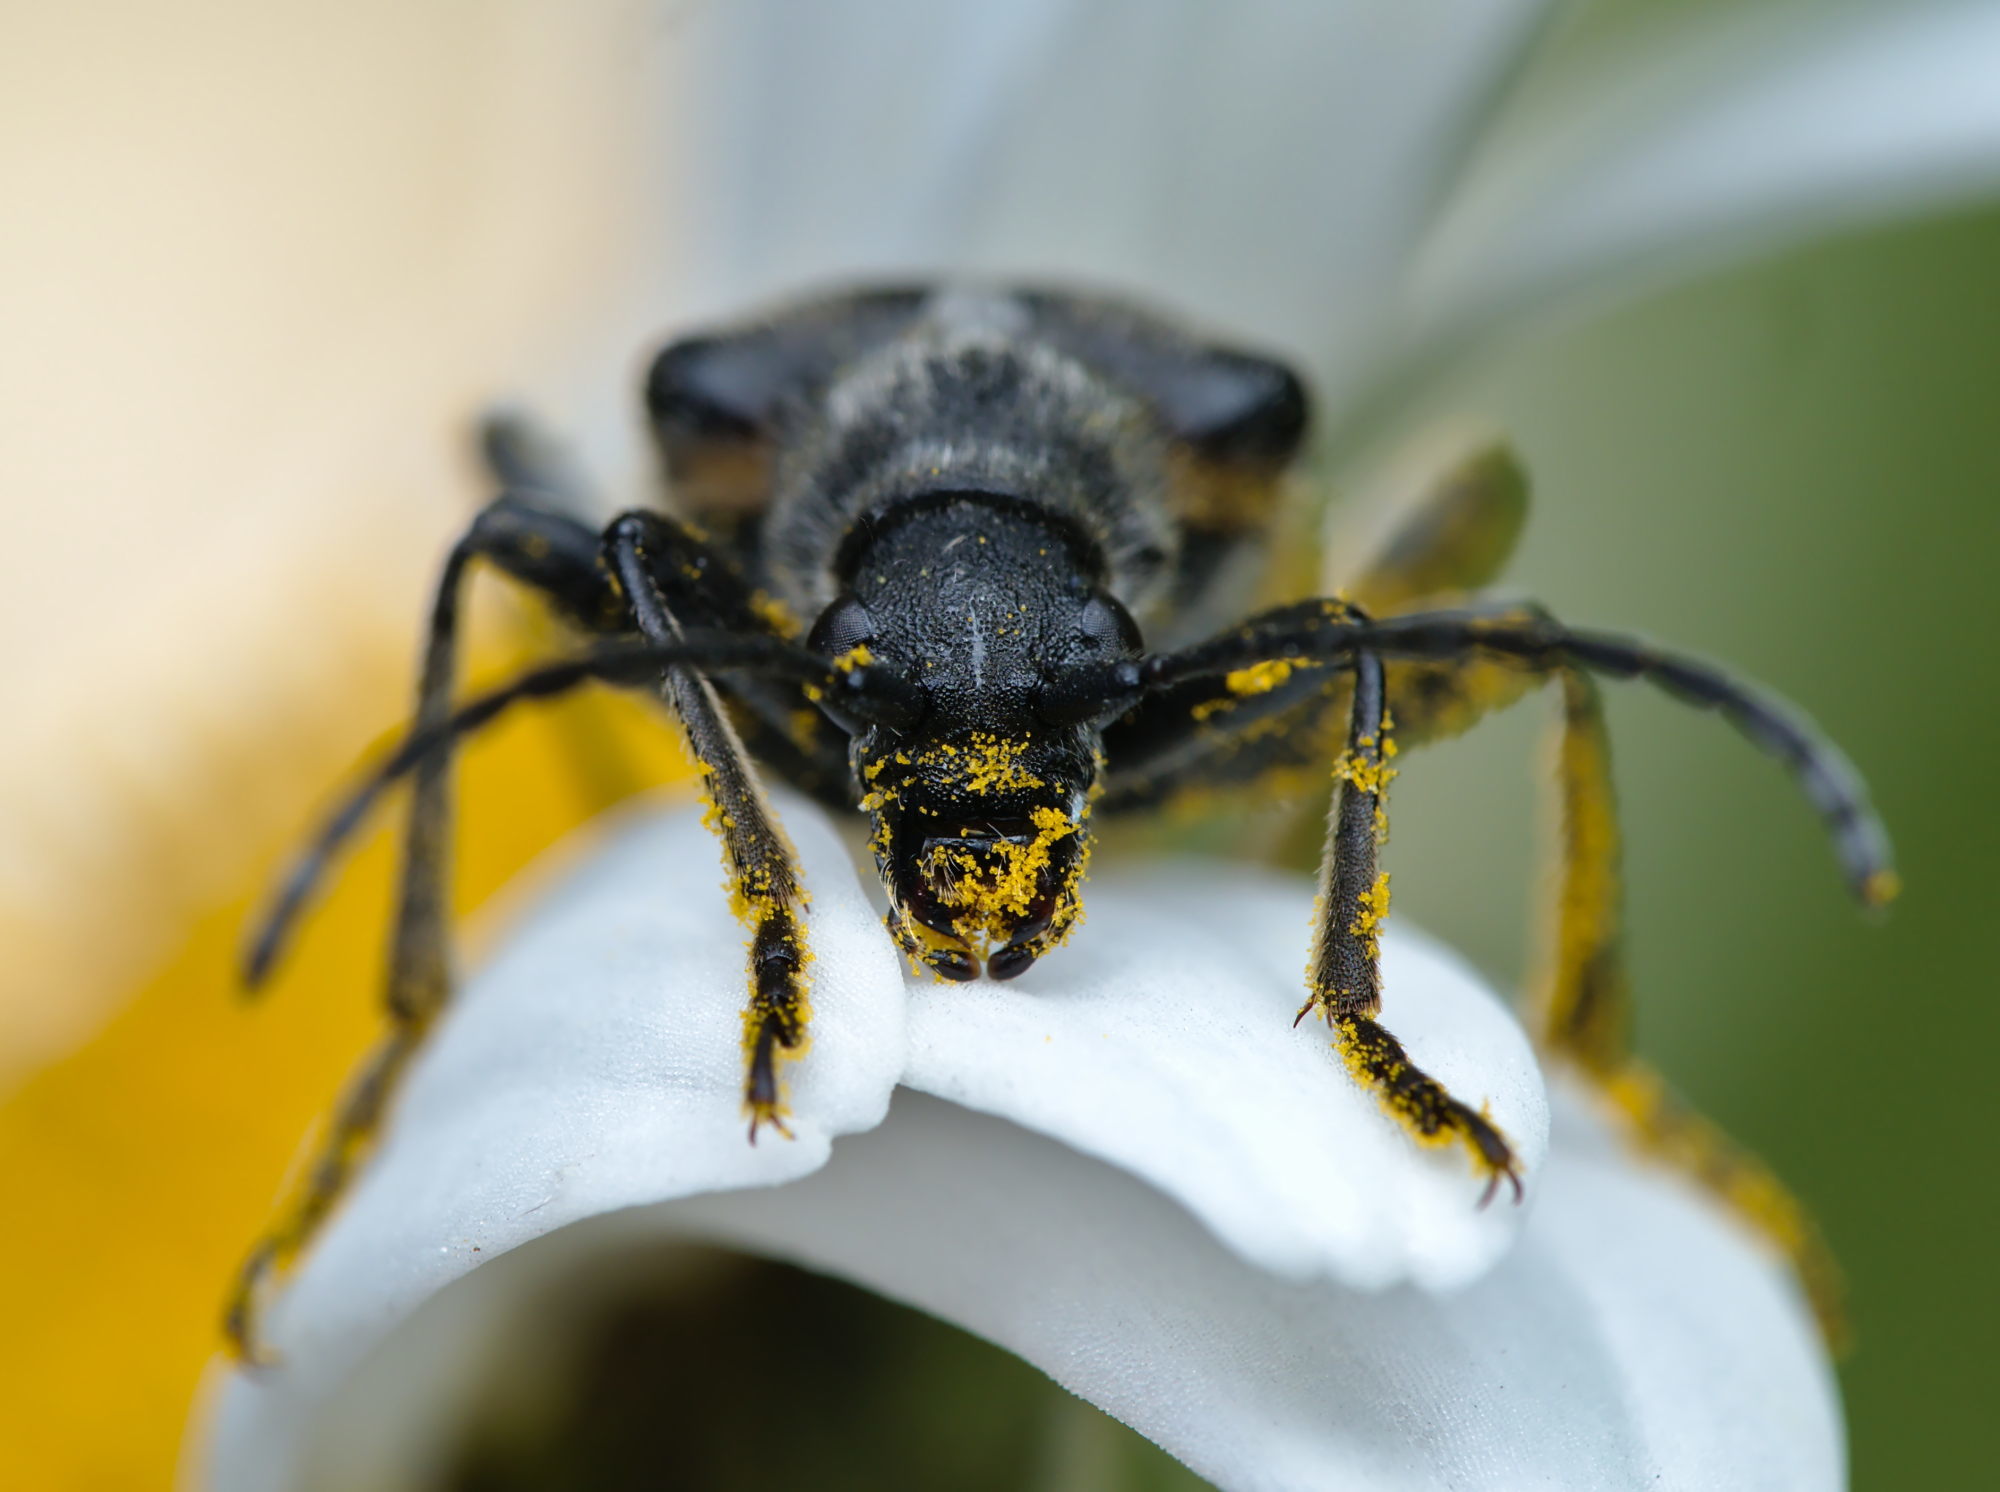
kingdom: Animalia
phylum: Arthropoda
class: Insecta
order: Coleoptera
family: Cerambycidae
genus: Brachyta
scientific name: Brachyta interrogationis
